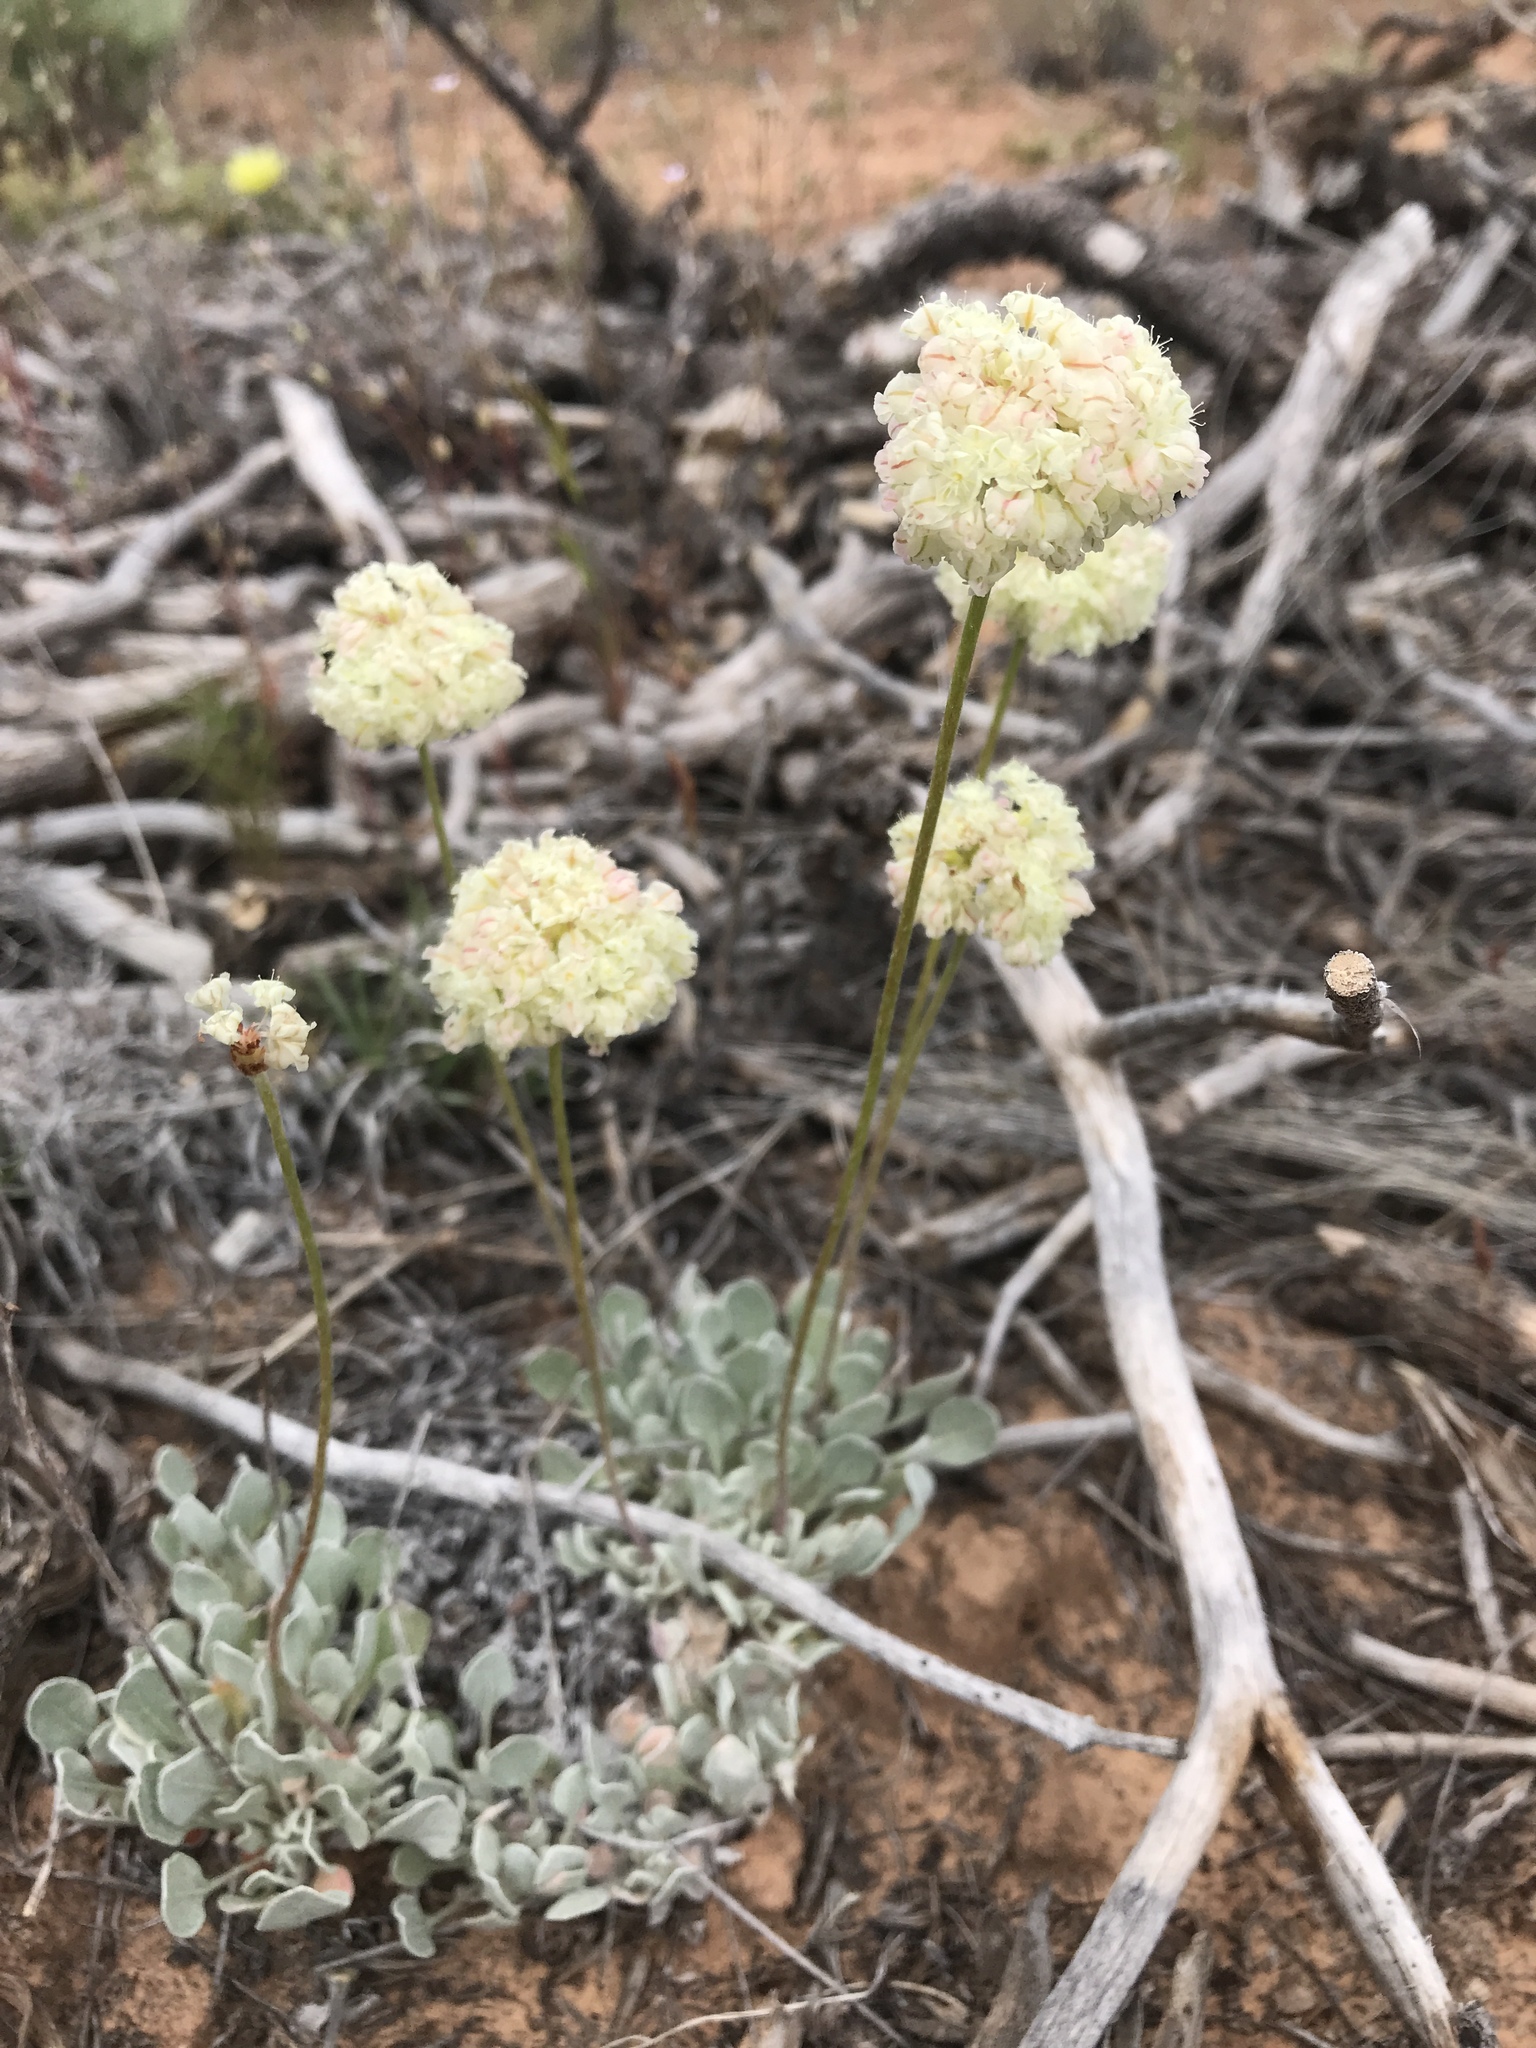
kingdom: Plantae
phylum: Tracheophyta
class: Magnoliopsida
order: Caryophyllales
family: Polygonaceae
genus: Eriogonum
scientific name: Eriogonum ovalifolium
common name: Cushion buckwheat
